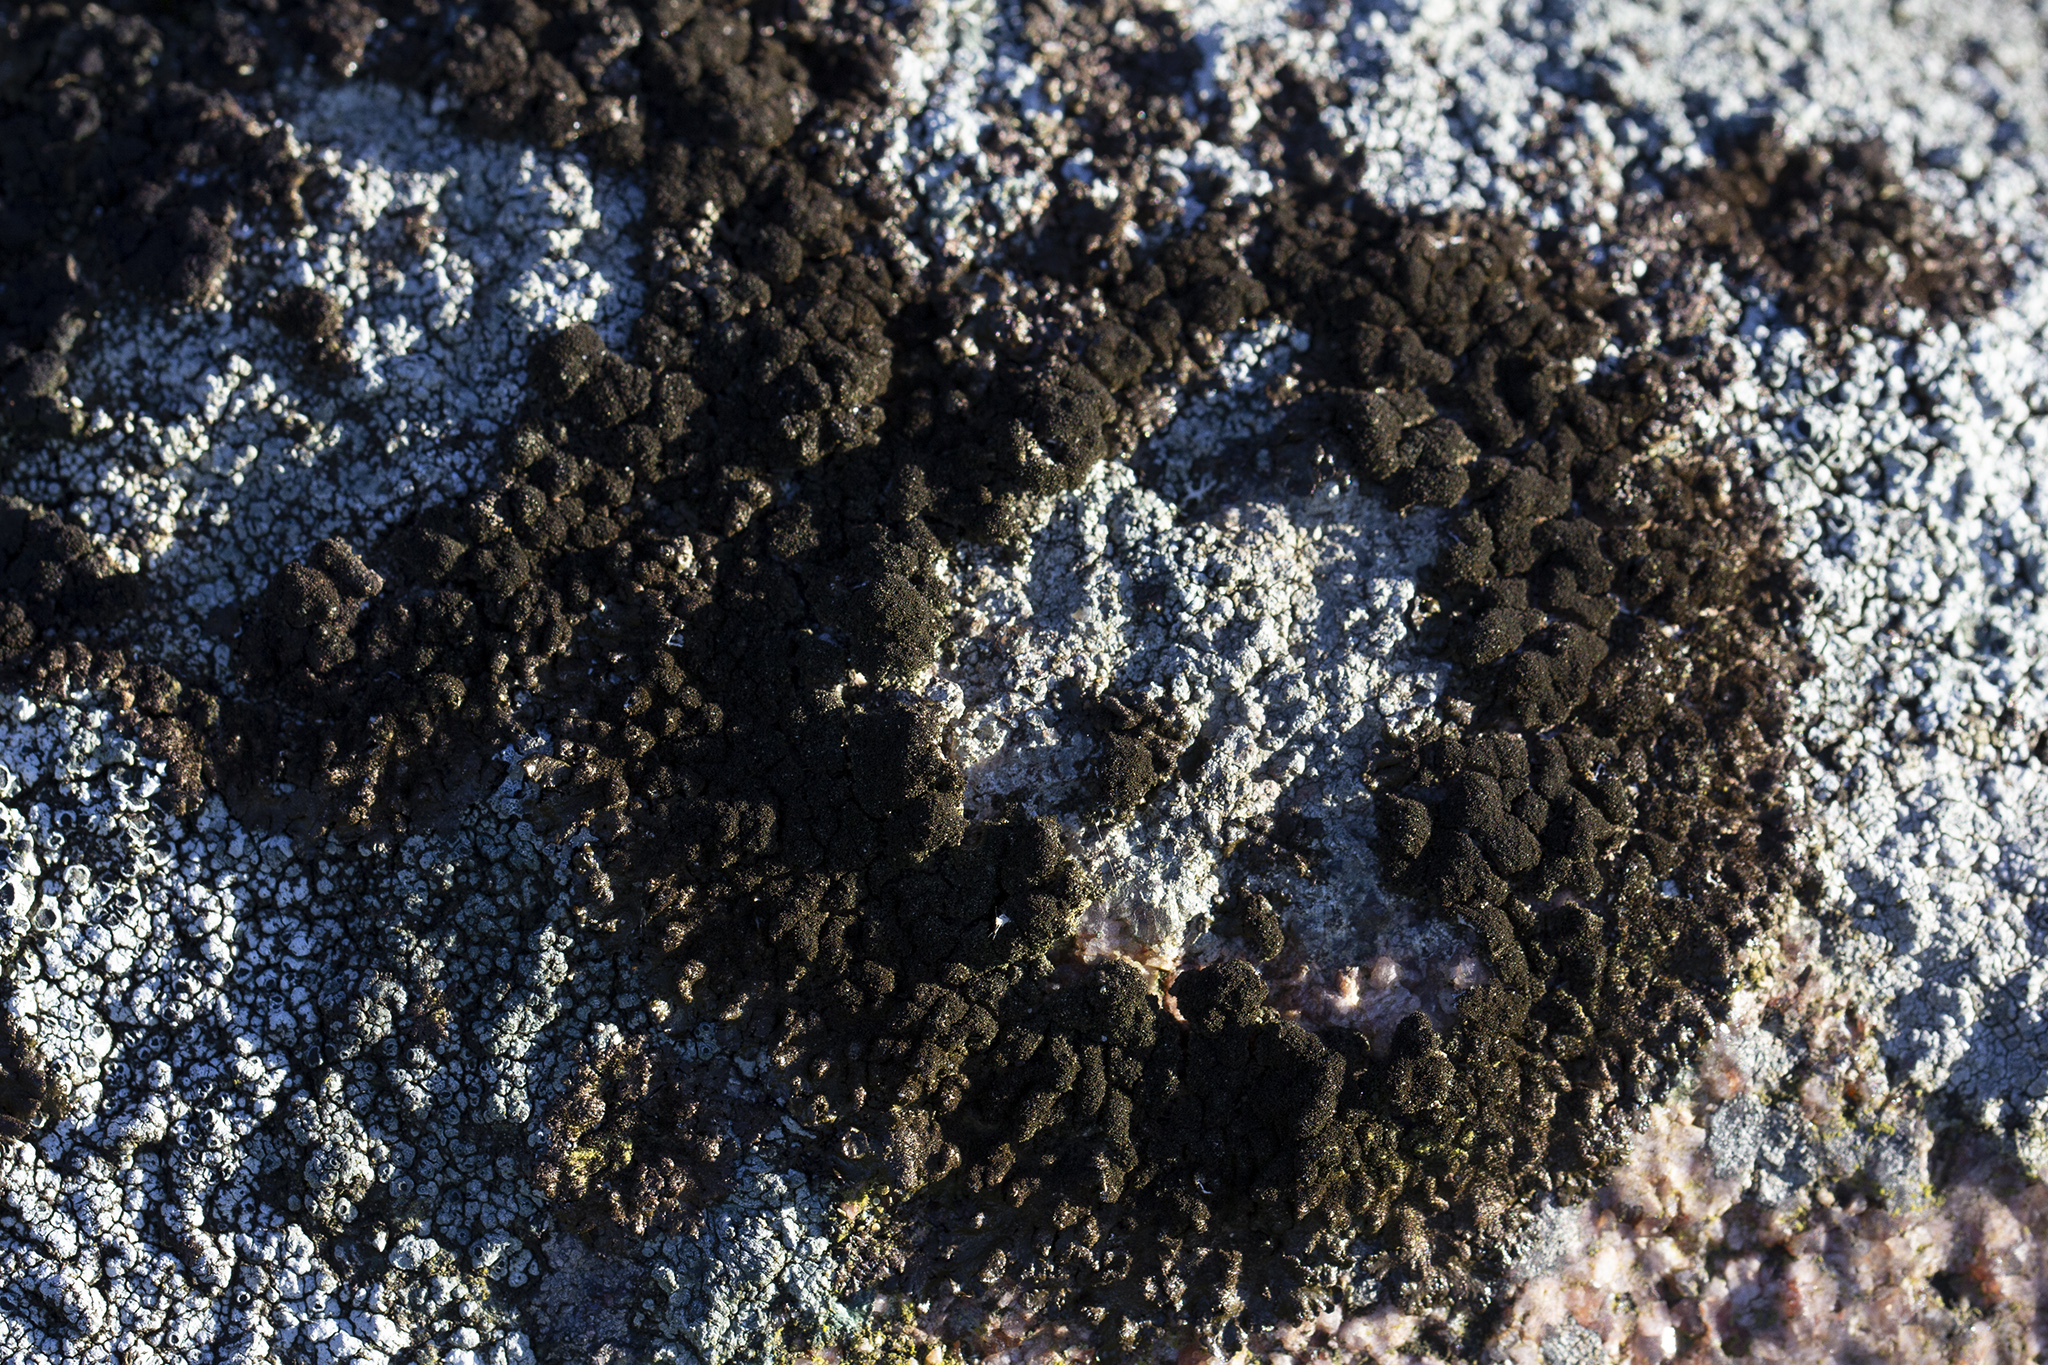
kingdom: Fungi
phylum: Ascomycota
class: Lecanoromycetes
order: Lecanorales
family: Parmeliaceae
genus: Melanelixia
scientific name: Melanelixia fuliginosa
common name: Shiny camouflage lichen
